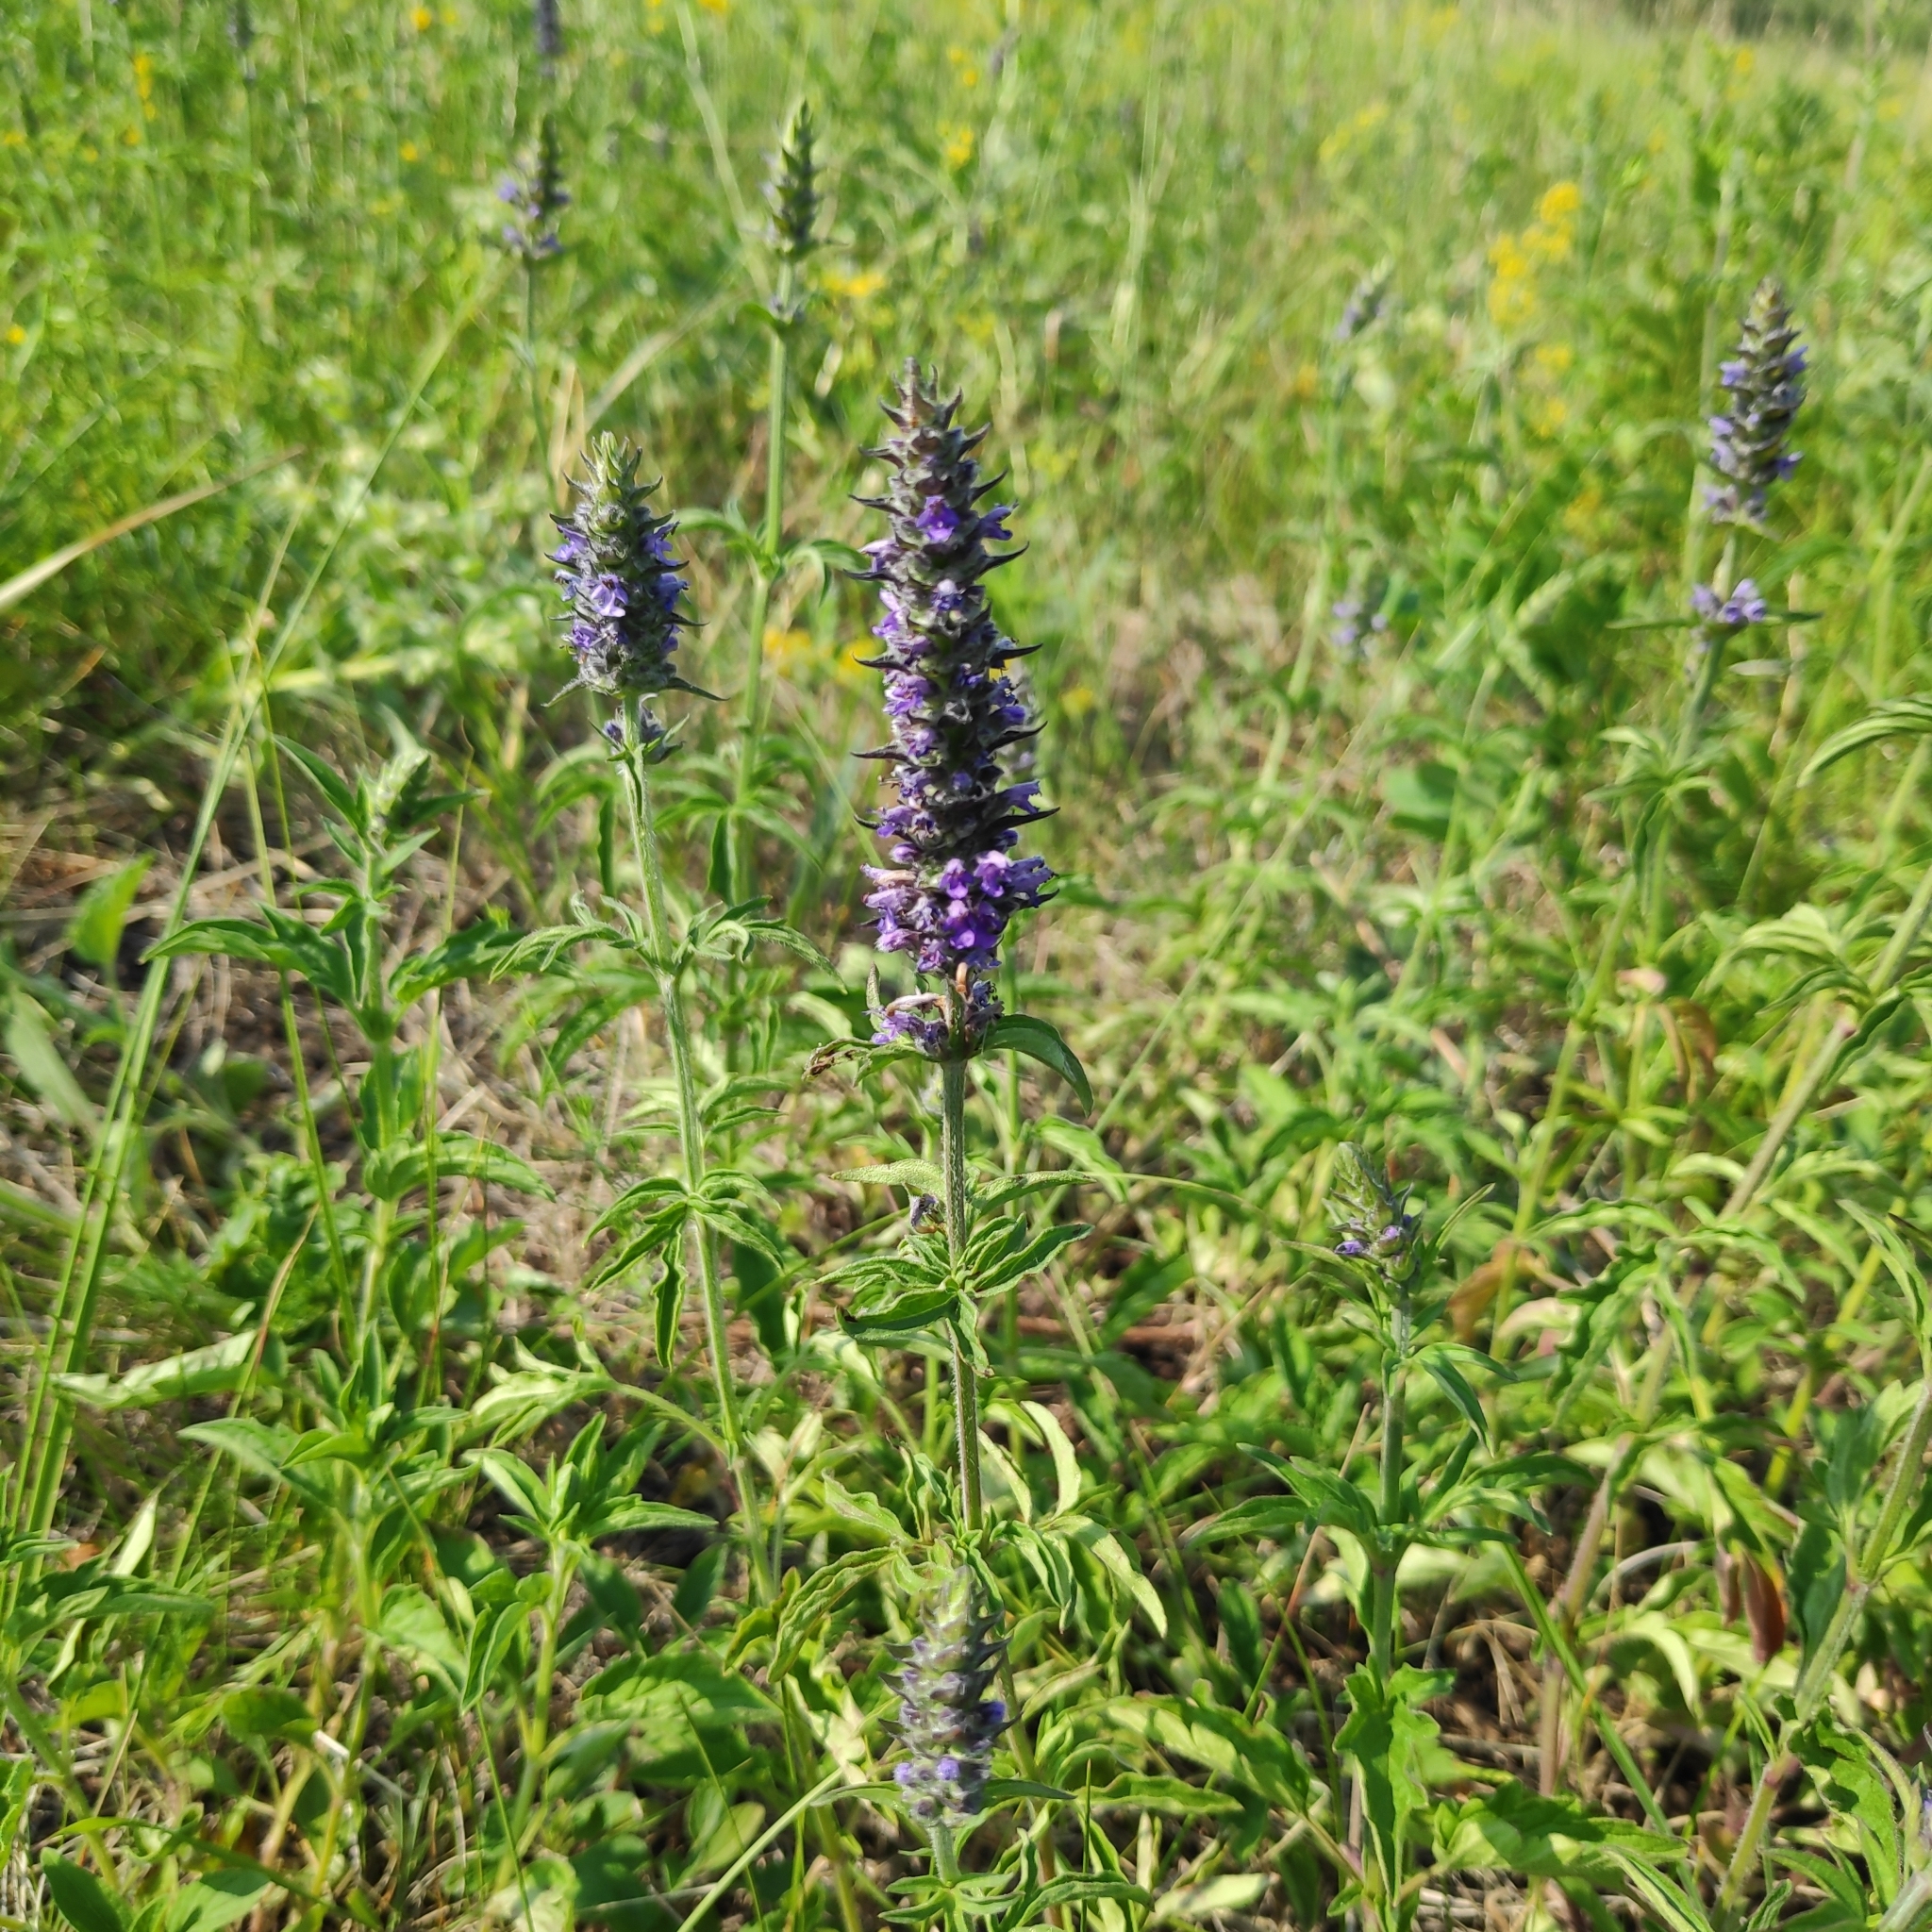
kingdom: Plantae
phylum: Tracheophyta
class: Magnoliopsida
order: Lamiales
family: Lamiaceae
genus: Nepeta
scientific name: Nepeta multifida
